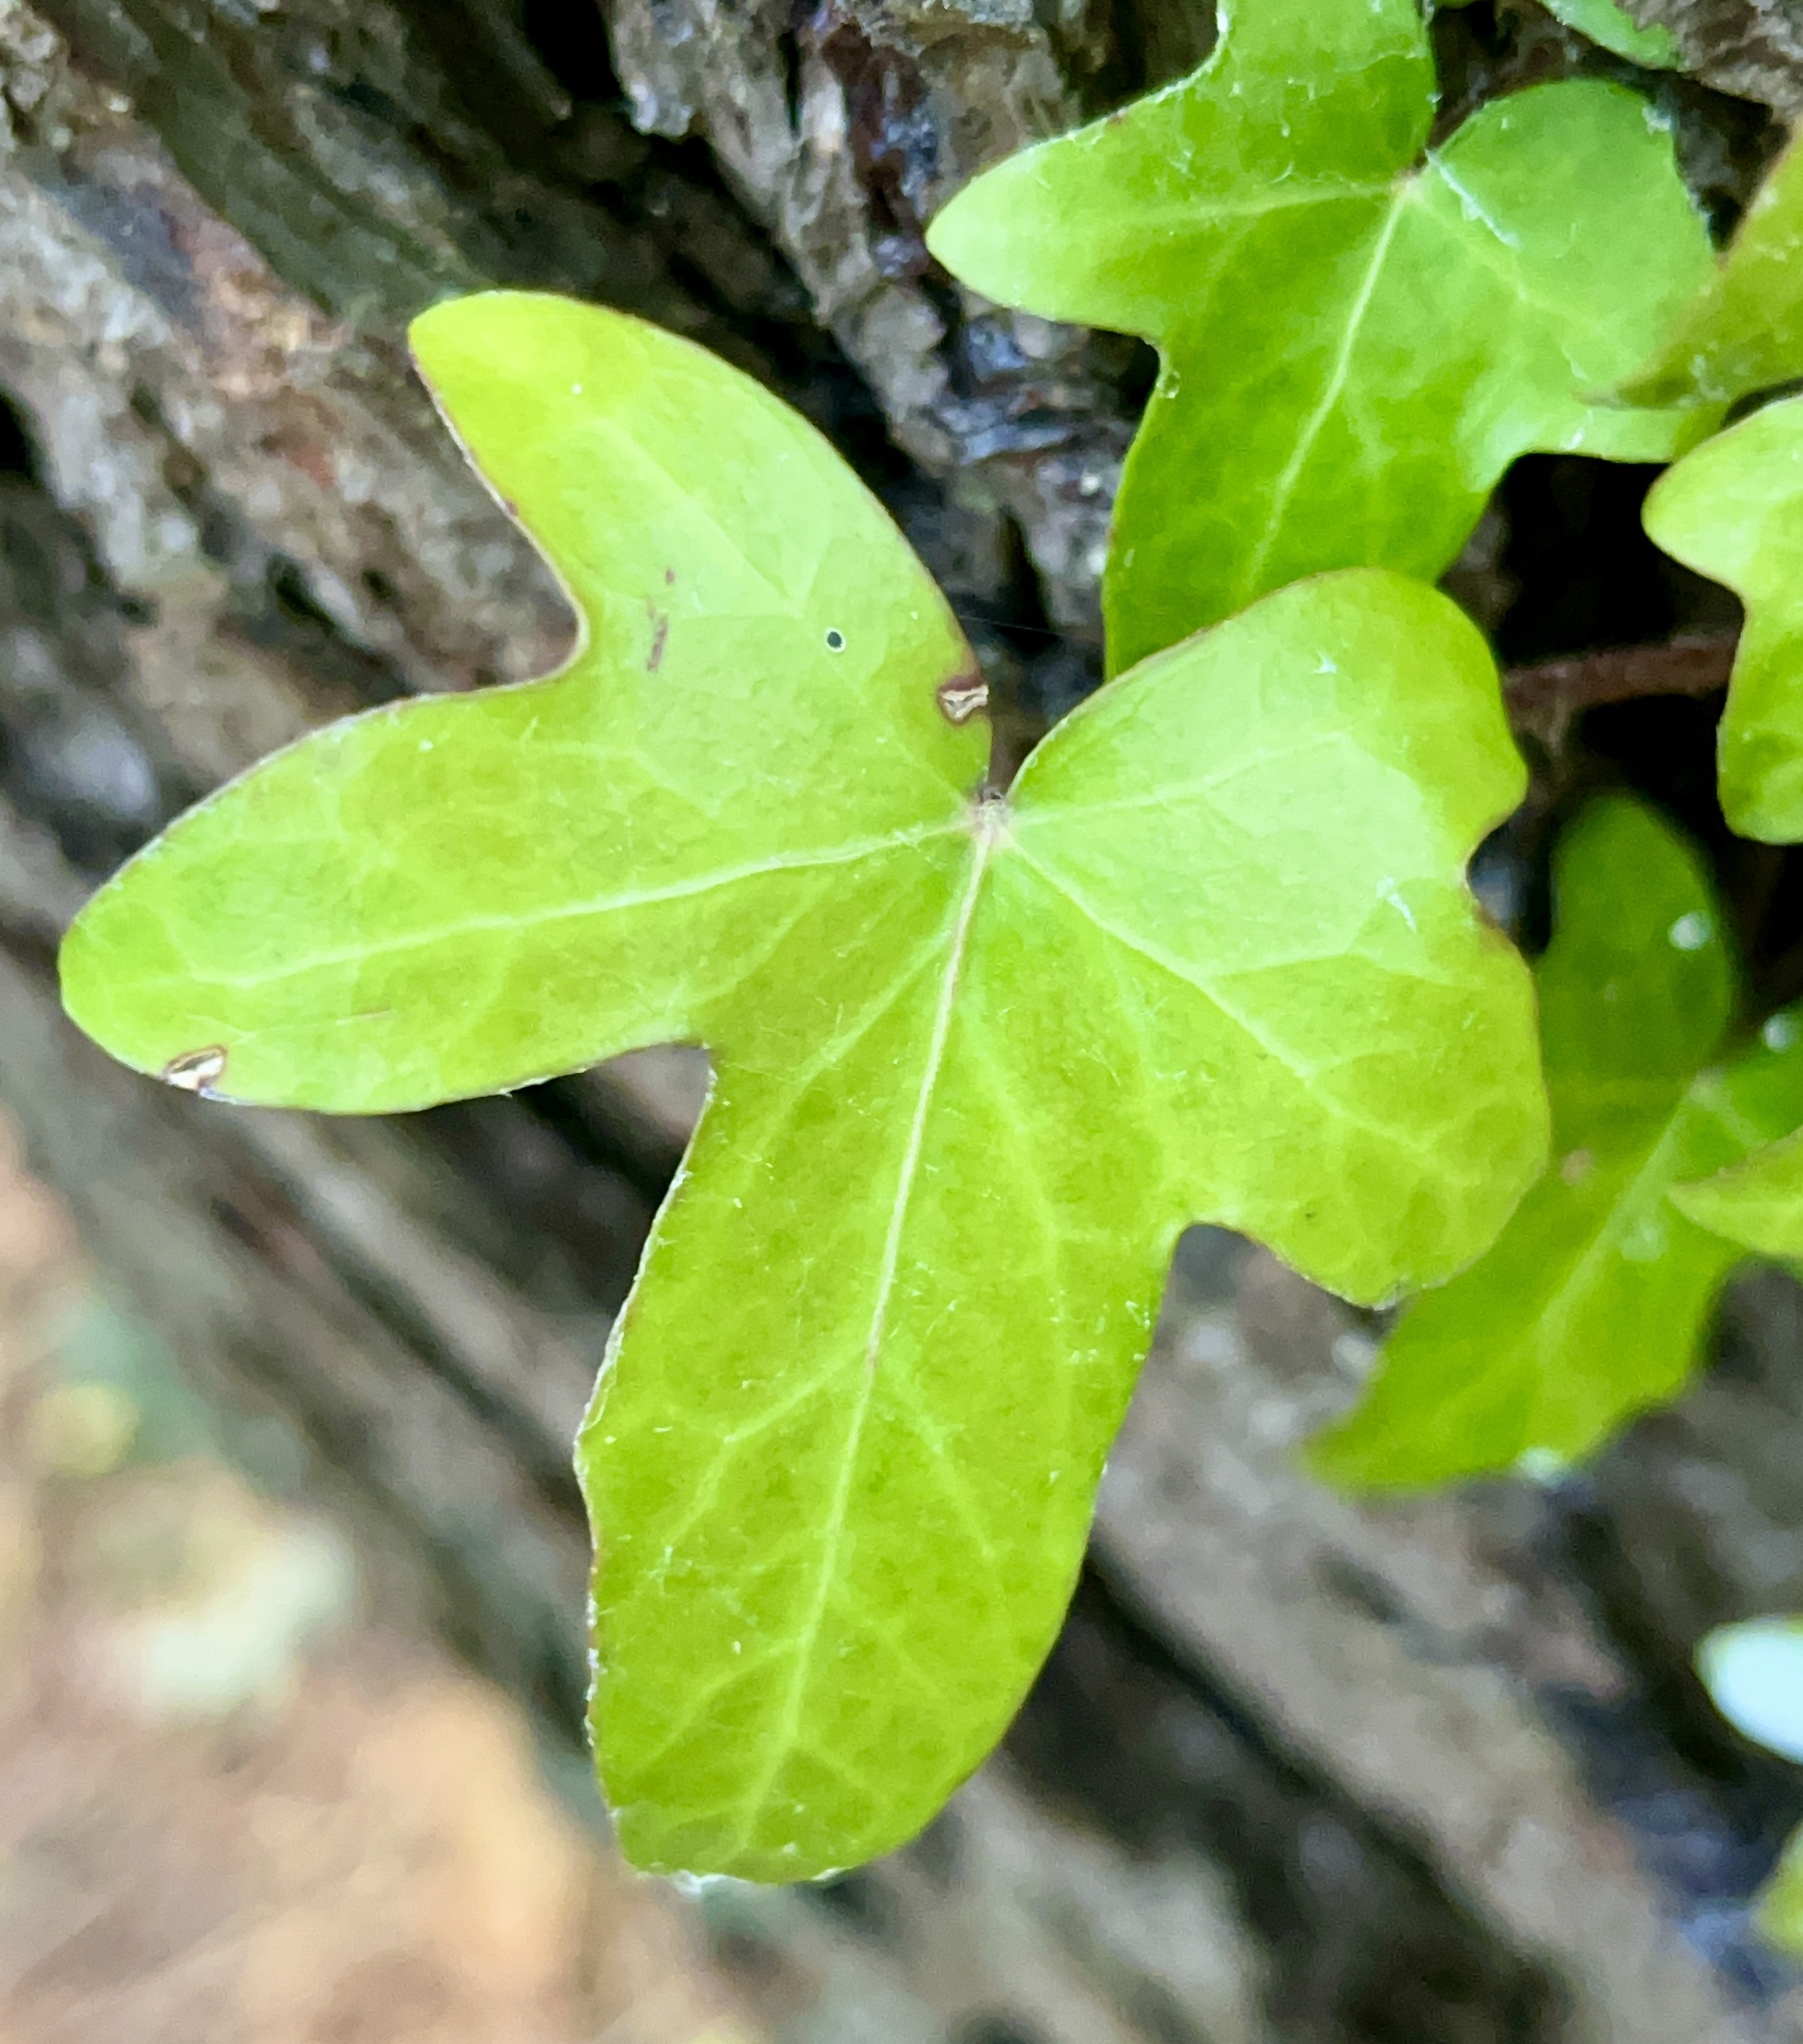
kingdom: Plantae
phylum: Tracheophyta
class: Magnoliopsida
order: Apiales
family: Araliaceae
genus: Hedera
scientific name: Hedera helix
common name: Ivy
